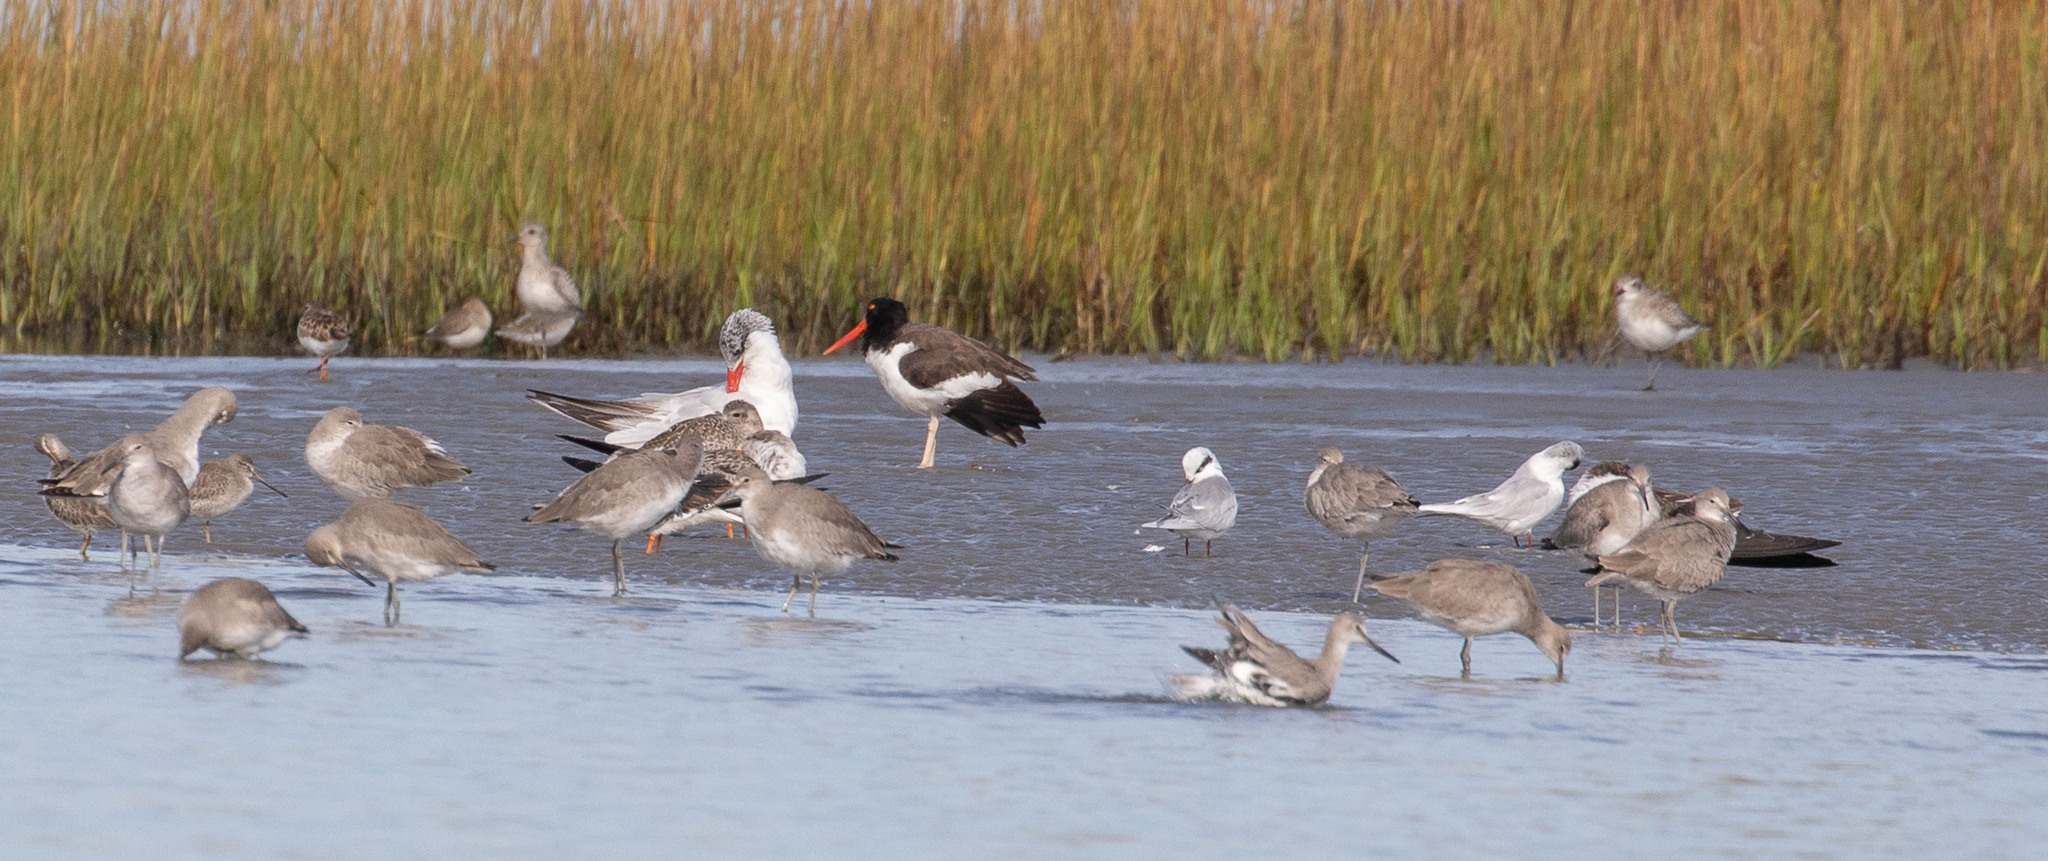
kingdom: Animalia
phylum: Chordata
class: Aves
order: Charadriiformes
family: Haematopodidae
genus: Haematopus
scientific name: Haematopus palliatus
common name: American oystercatcher
